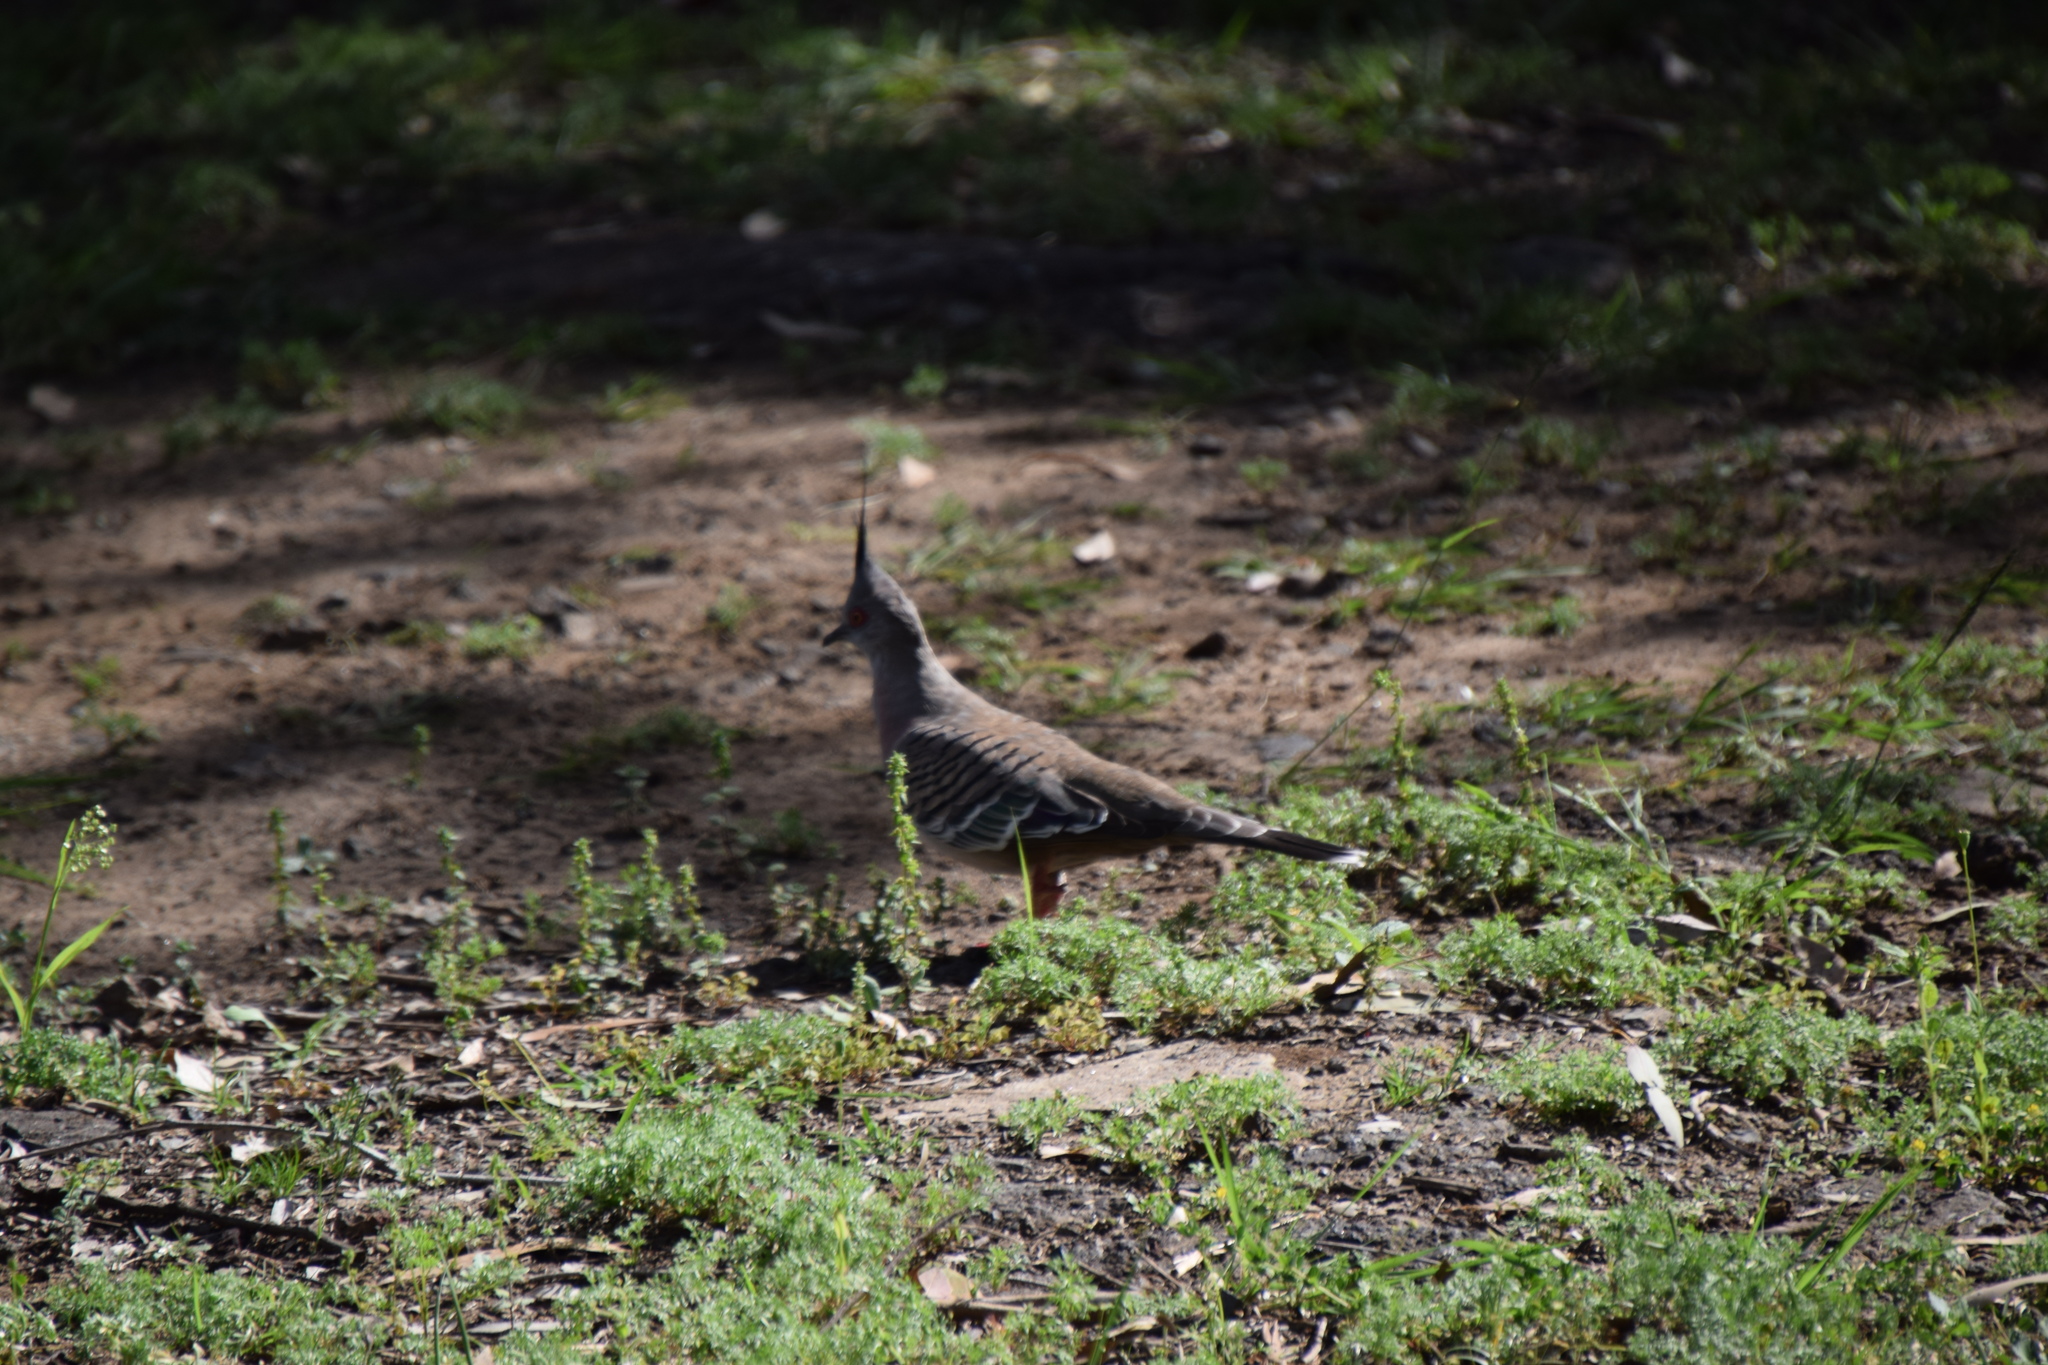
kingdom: Animalia
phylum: Chordata
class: Aves
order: Columbiformes
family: Columbidae
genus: Ocyphaps
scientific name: Ocyphaps lophotes
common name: Crested pigeon
